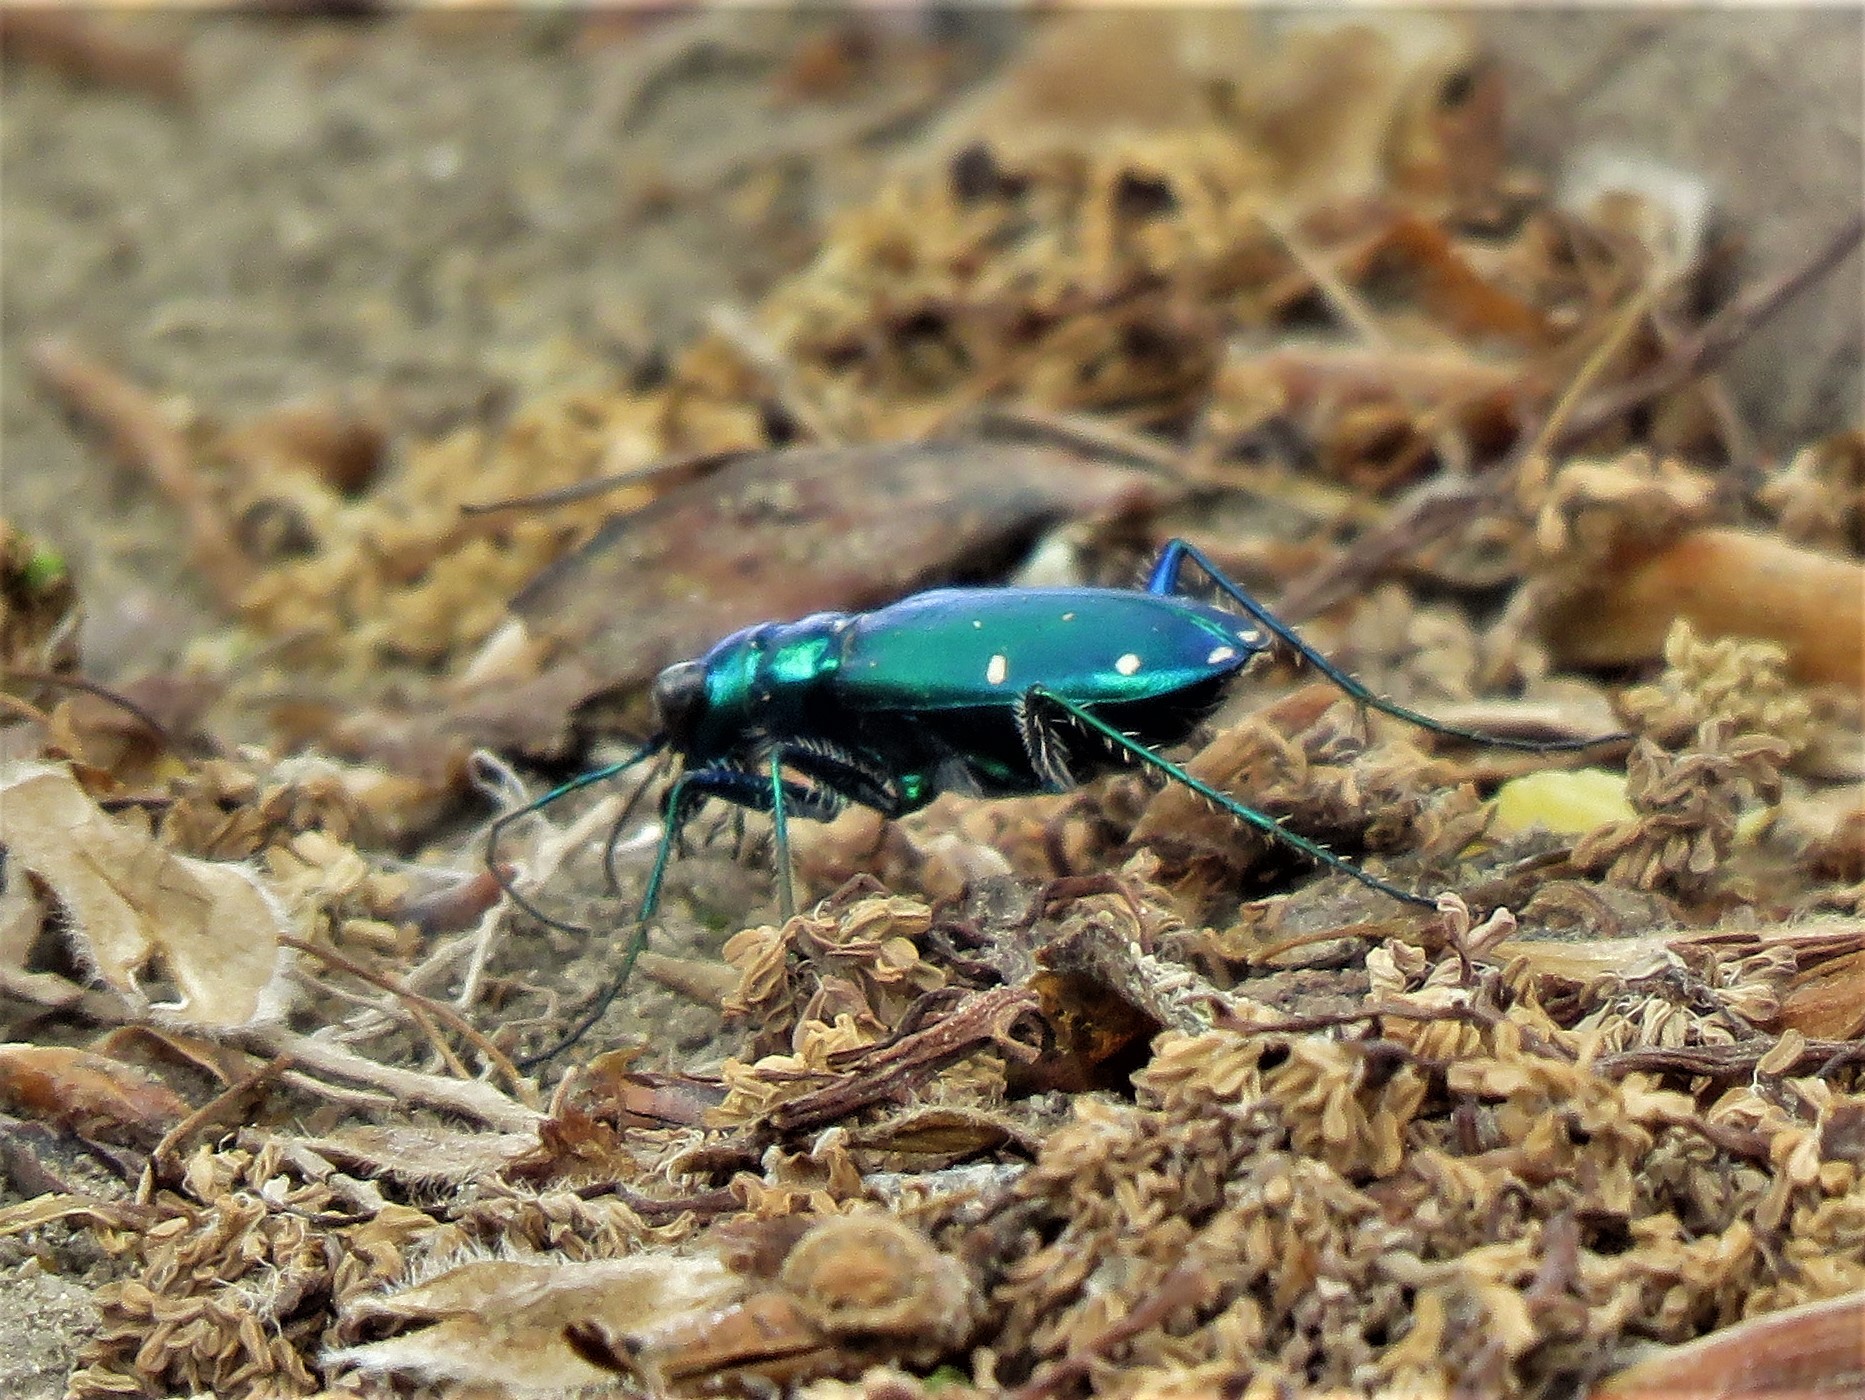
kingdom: Animalia
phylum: Arthropoda
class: Insecta
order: Coleoptera
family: Carabidae
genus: Cicindela
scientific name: Cicindela sexguttata
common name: Six-spotted tiger beetle
